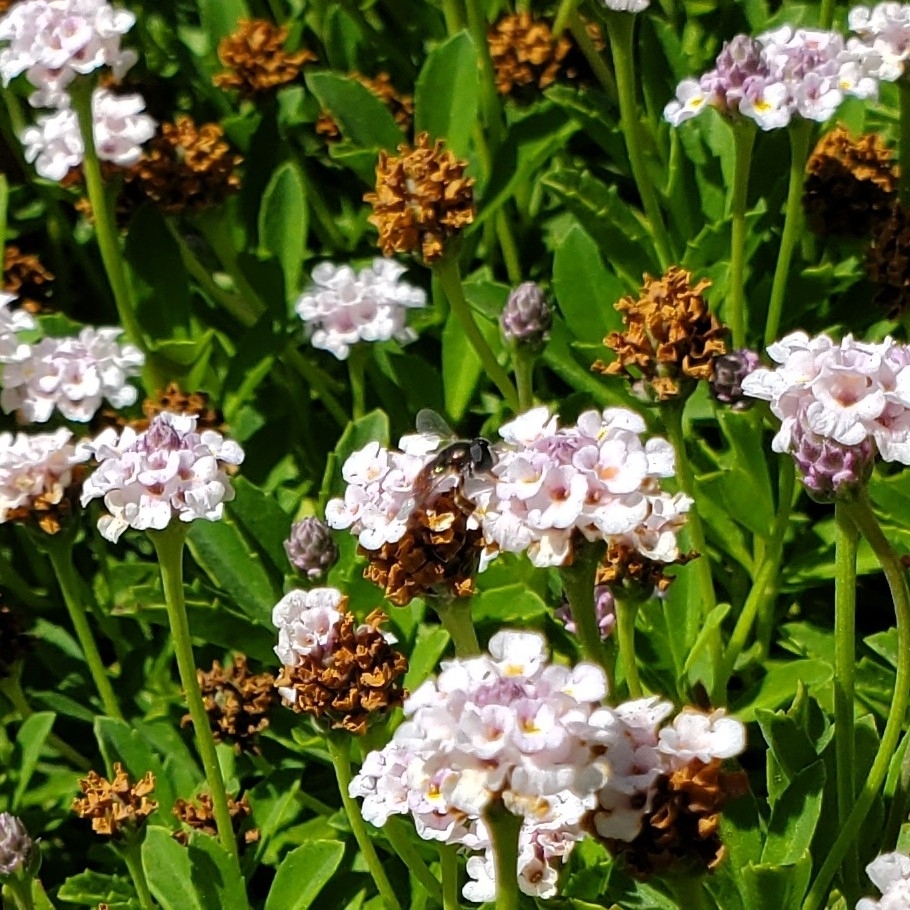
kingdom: Animalia
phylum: Arthropoda
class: Insecta
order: Diptera
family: Syrphidae
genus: Paragus
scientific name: Paragus haemorrhous
